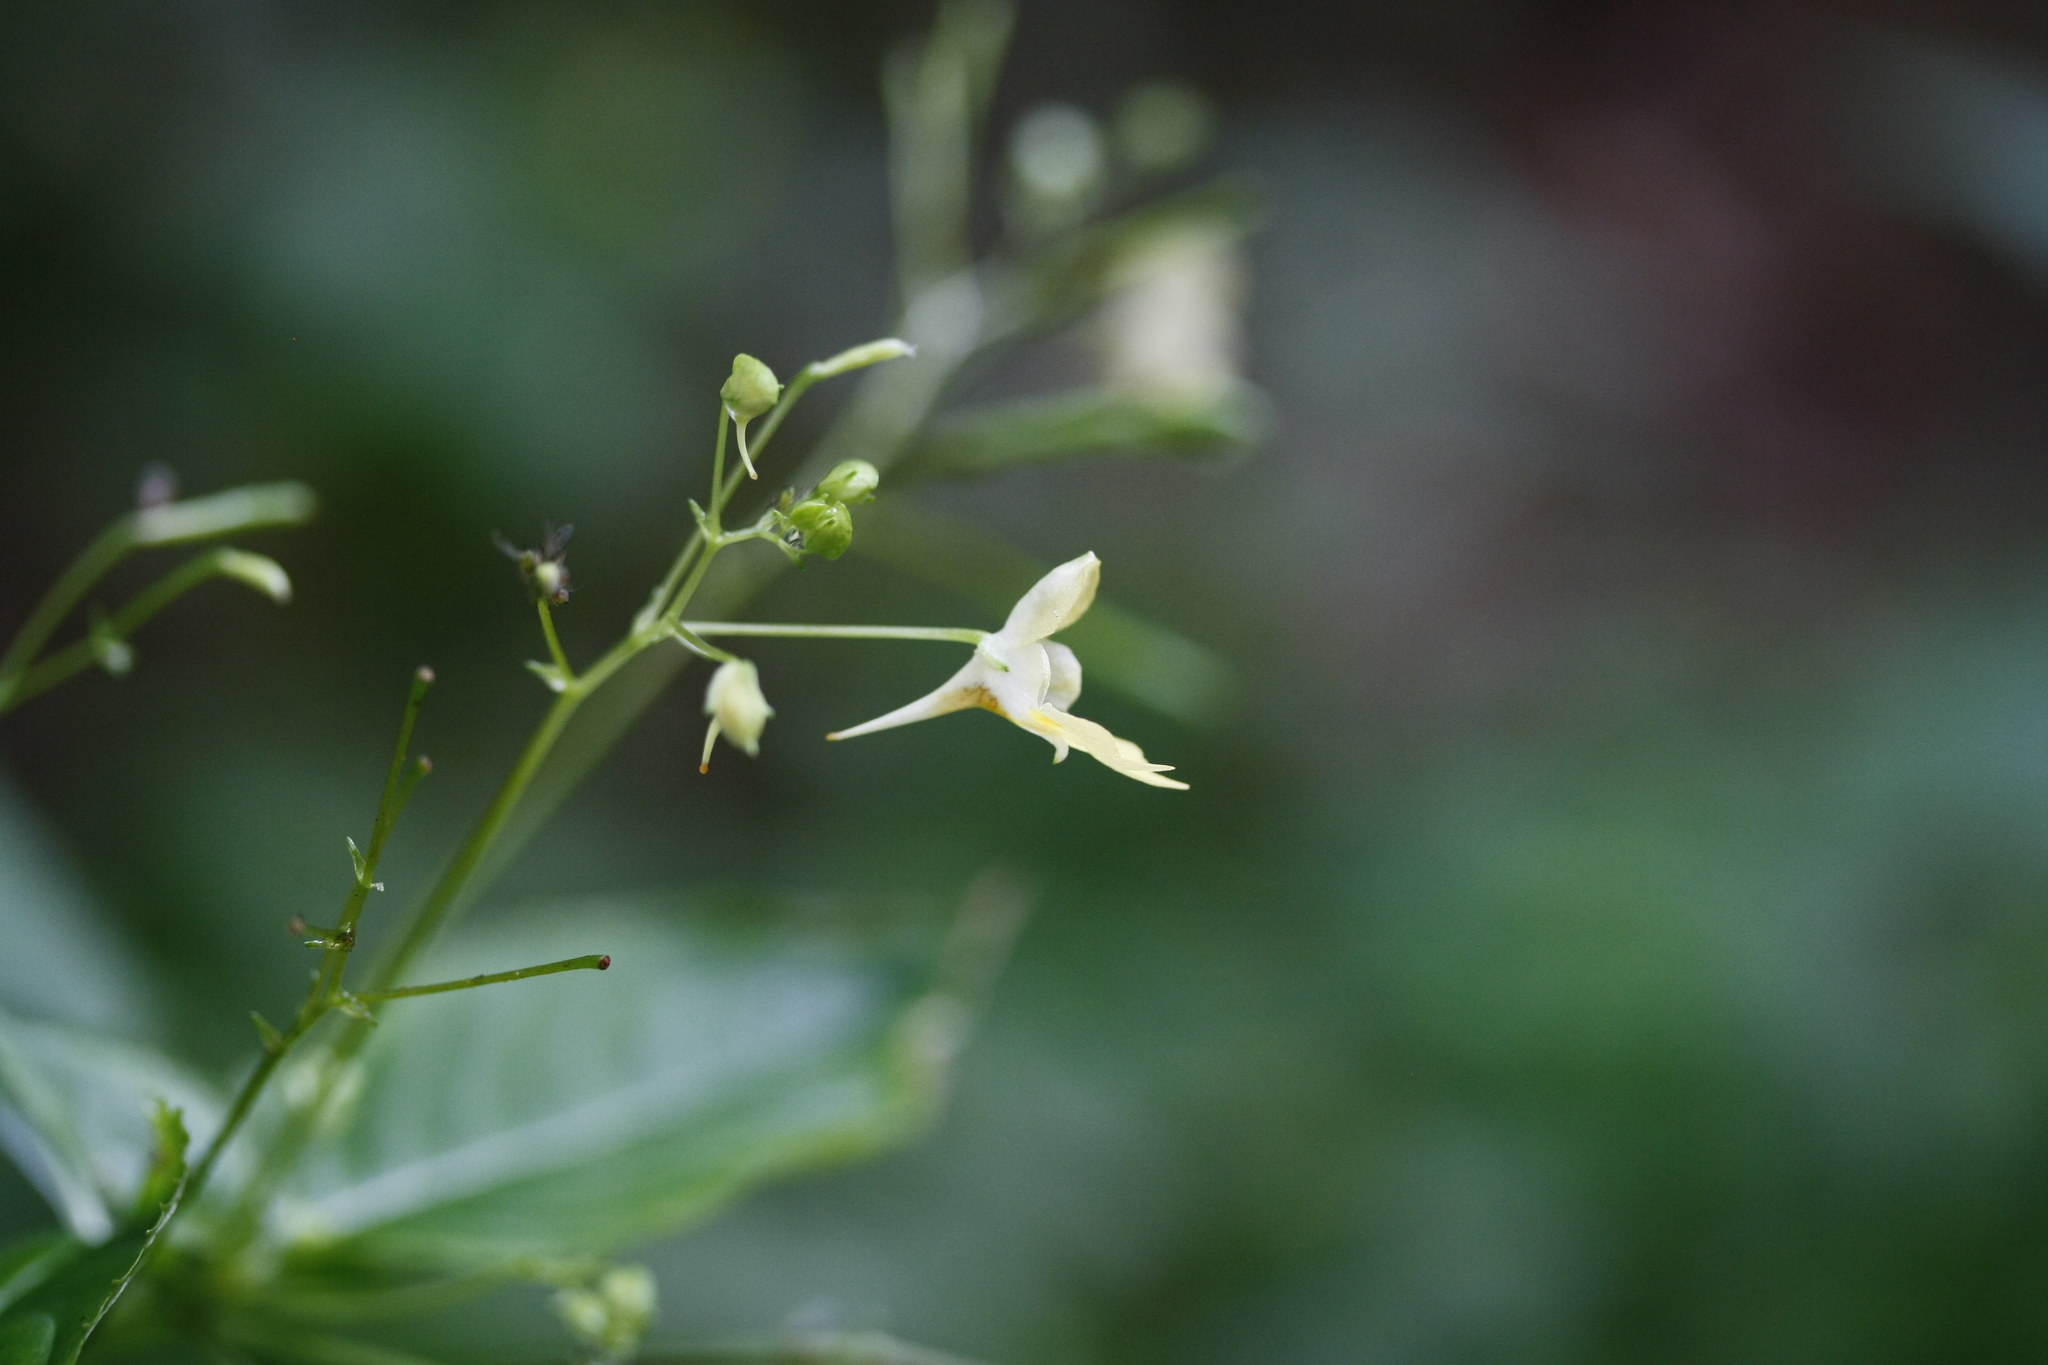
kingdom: Plantae
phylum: Tracheophyta
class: Magnoliopsida
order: Ericales
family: Balsaminaceae
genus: Impatiens
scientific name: Impatiens parviflora
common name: Small balsam
